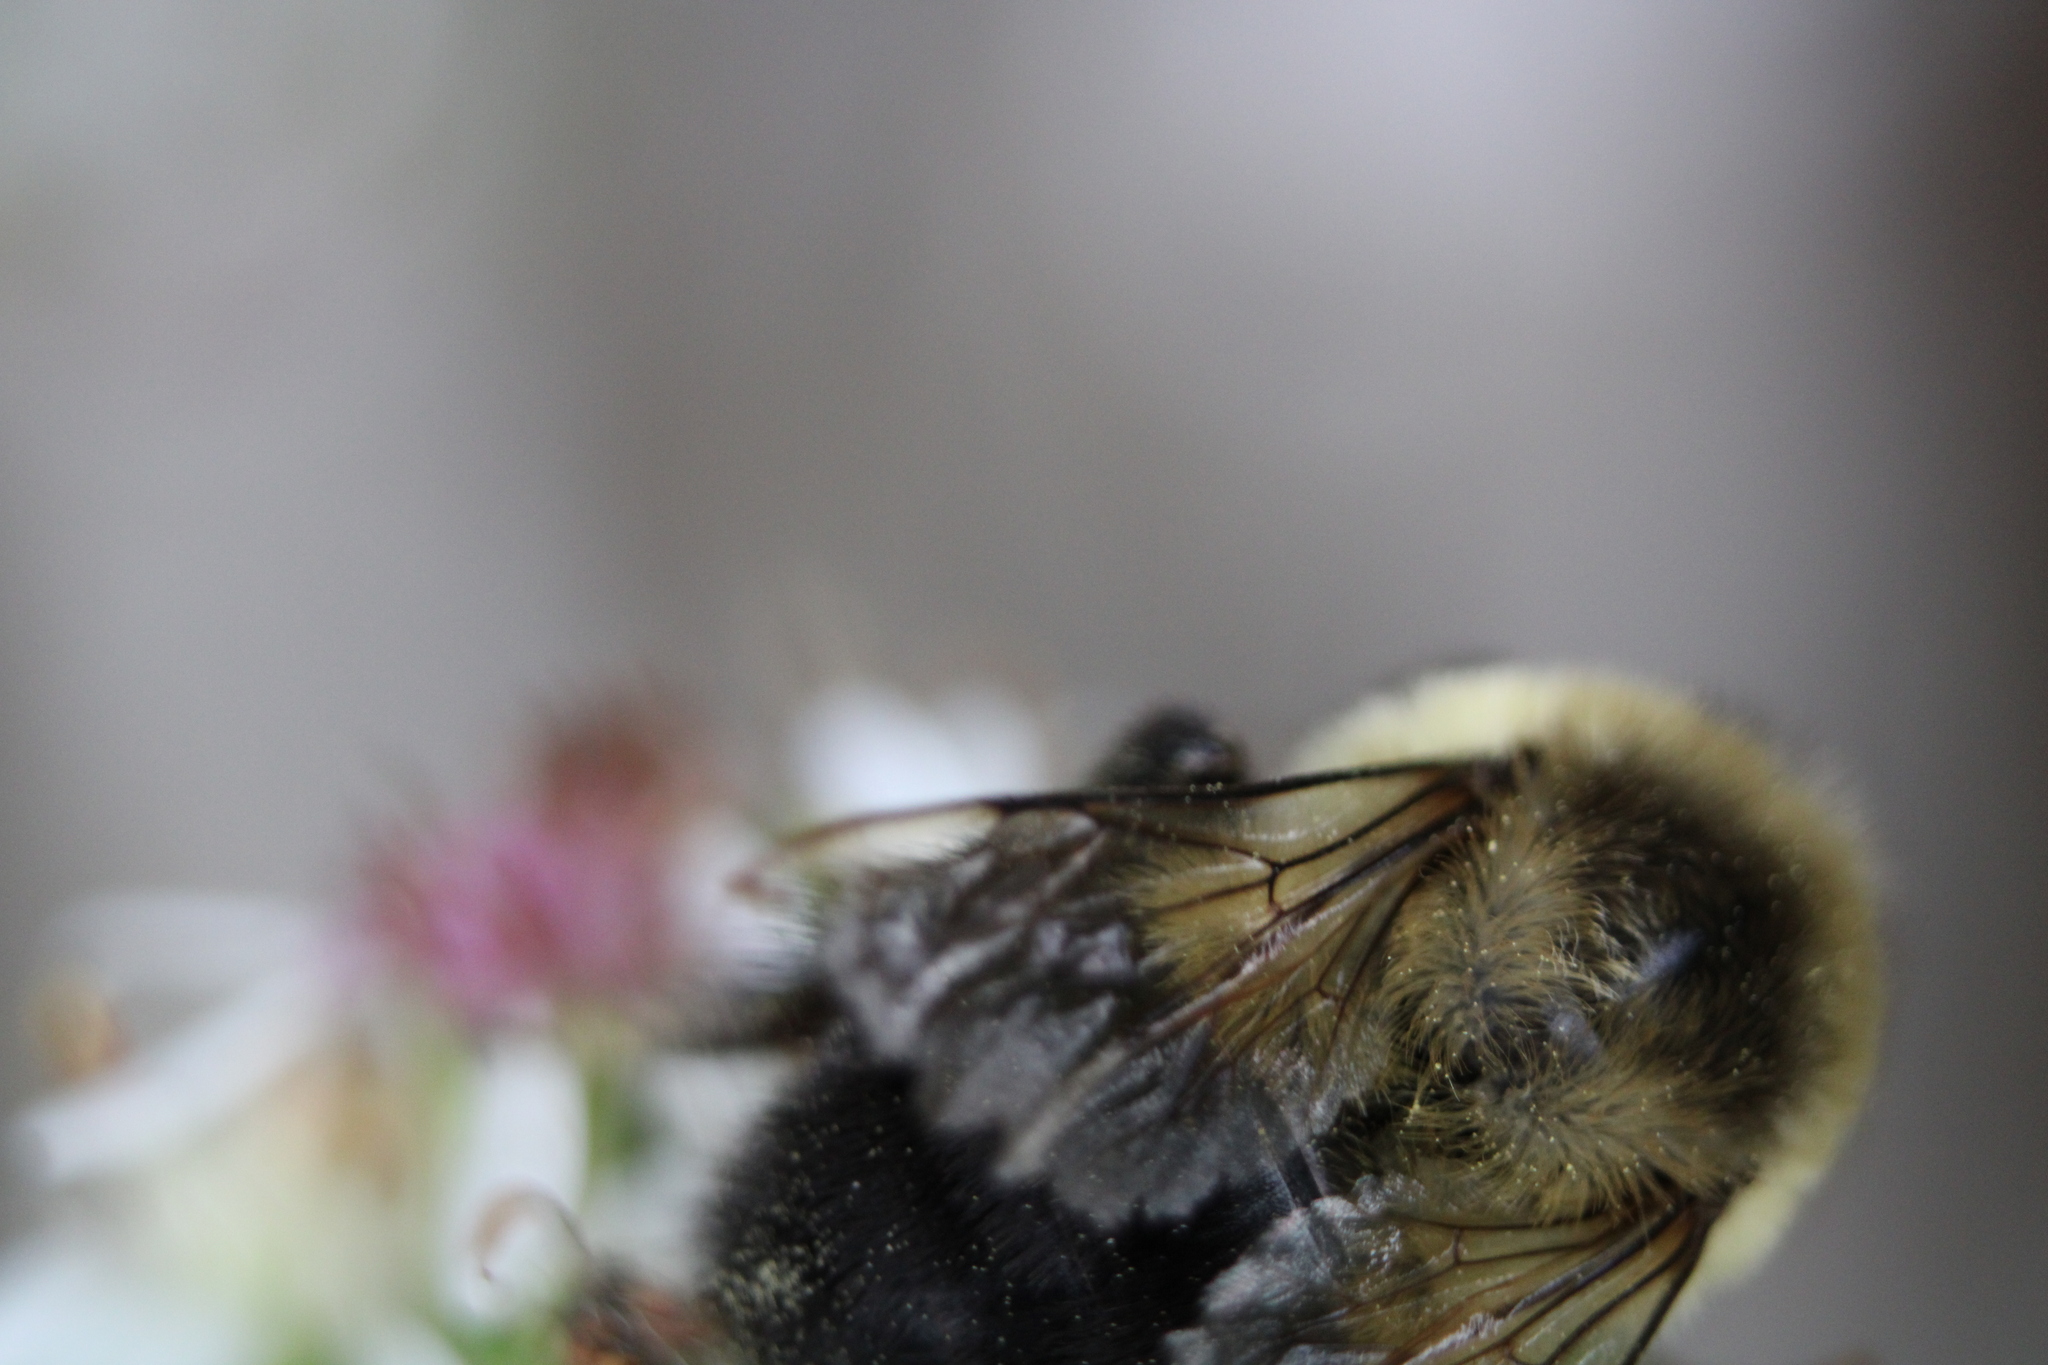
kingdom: Animalia
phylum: Arthropoda
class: Insecta
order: Hymenoptera
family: Apidae
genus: Bombus
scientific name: Bombus impatiens
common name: Common eastern bumble bee
